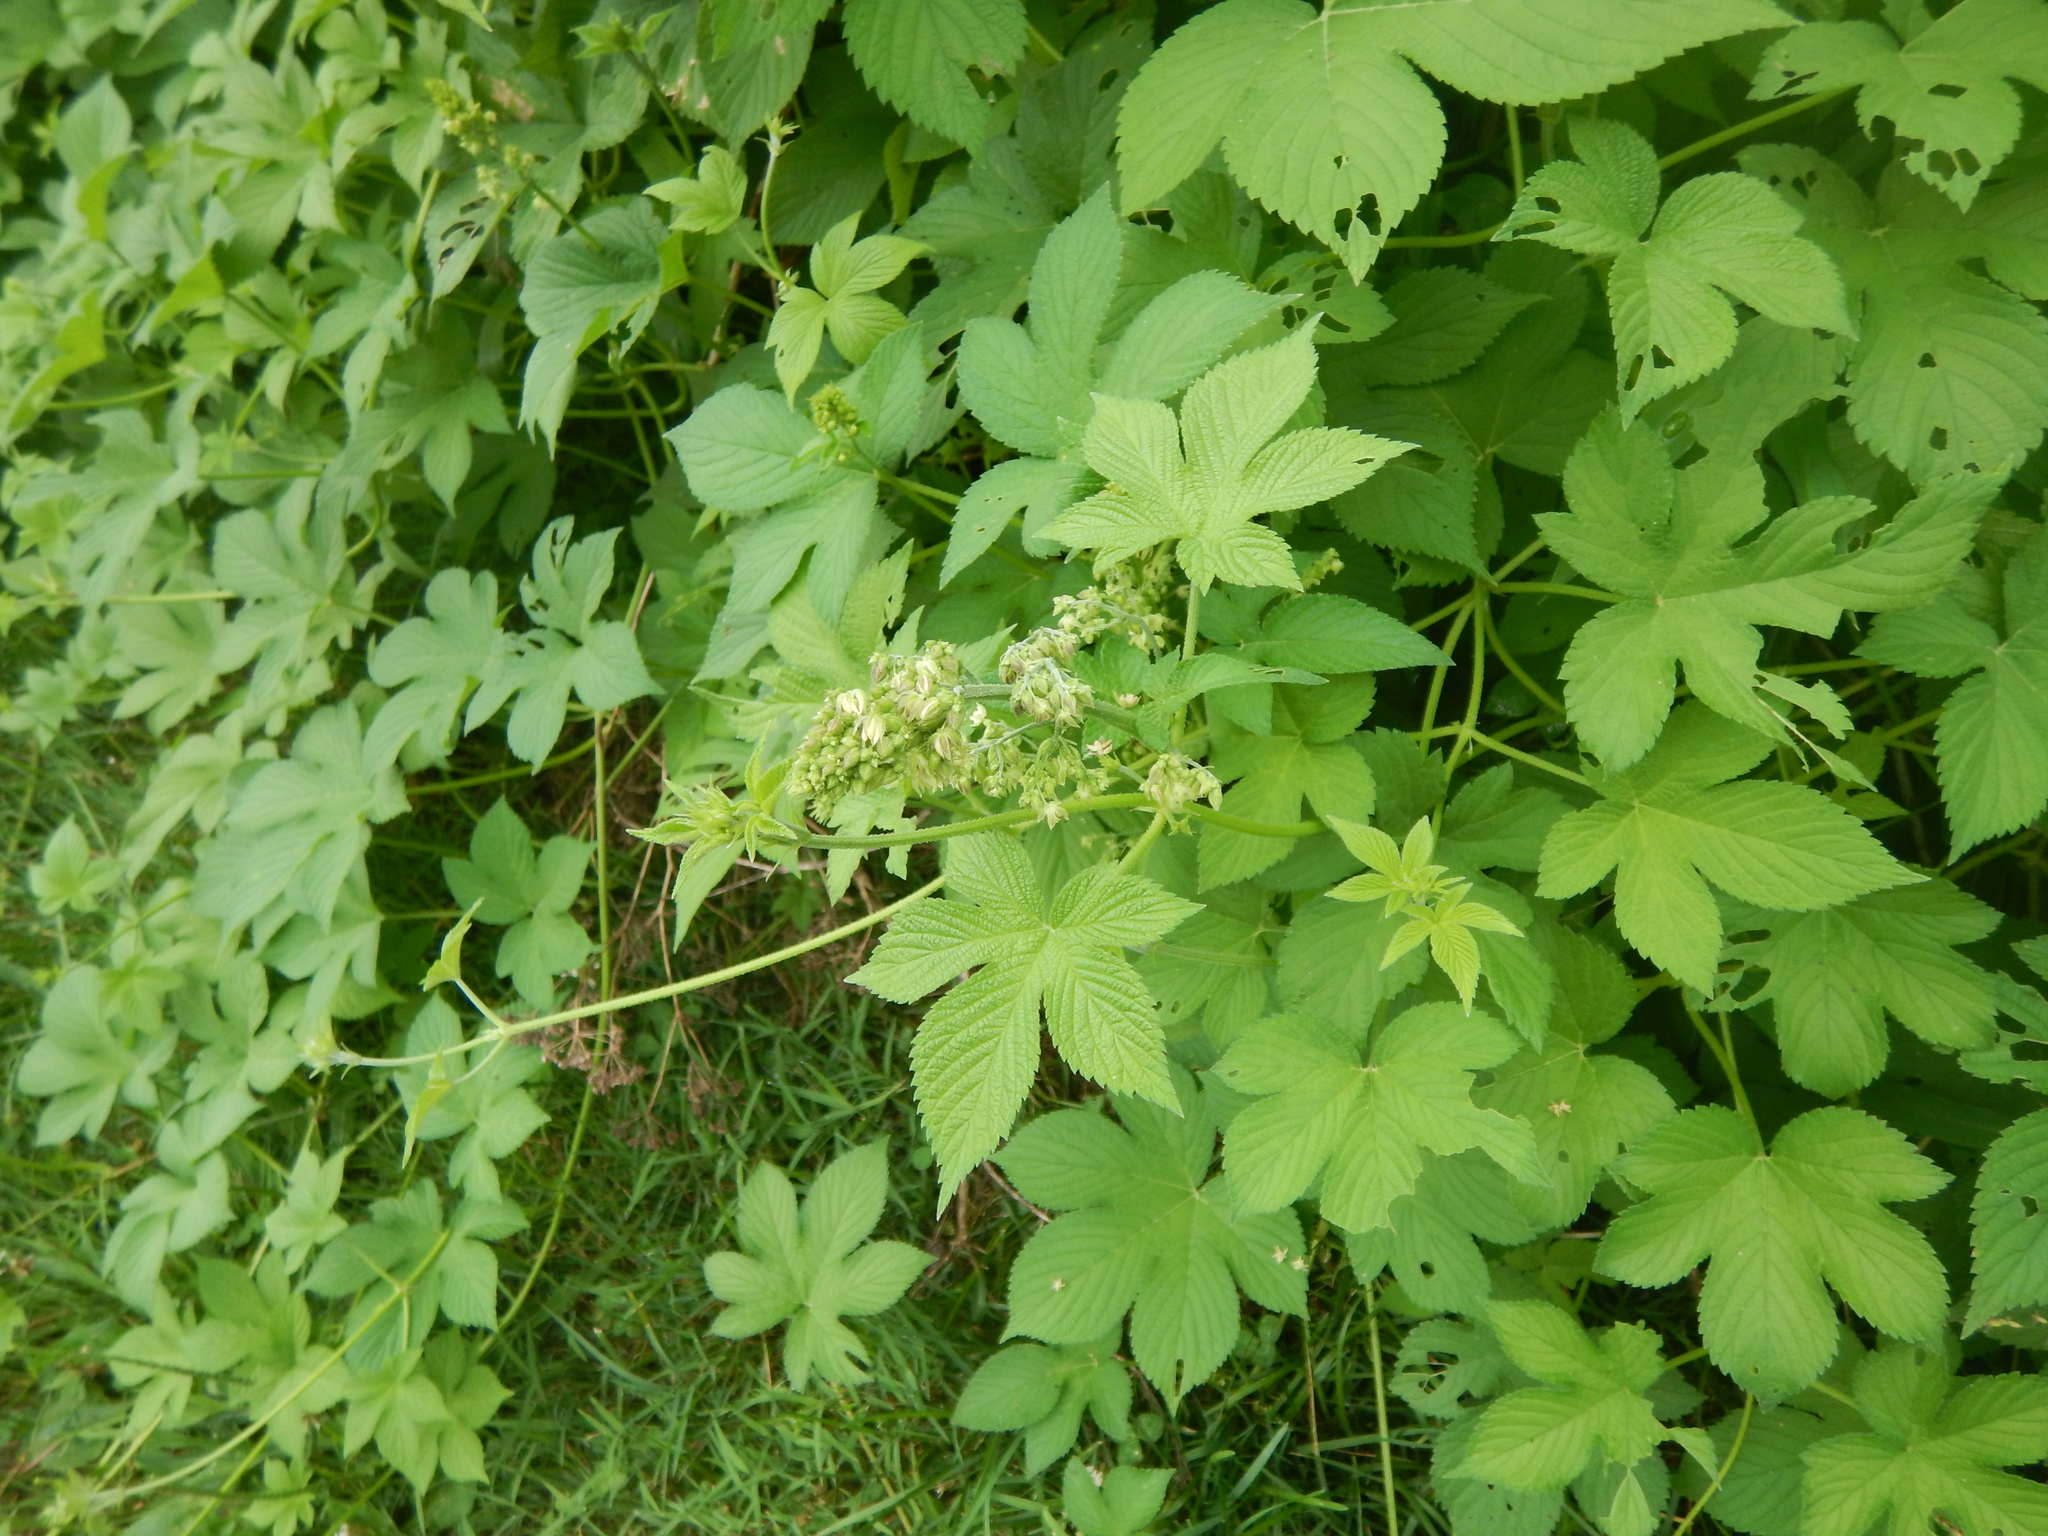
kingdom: Plantae
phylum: Tracheophyta
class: Magnoliopsida
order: Rosales
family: Cannabaceae
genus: Humulus
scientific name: Humulus scandens
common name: Japanese hop
